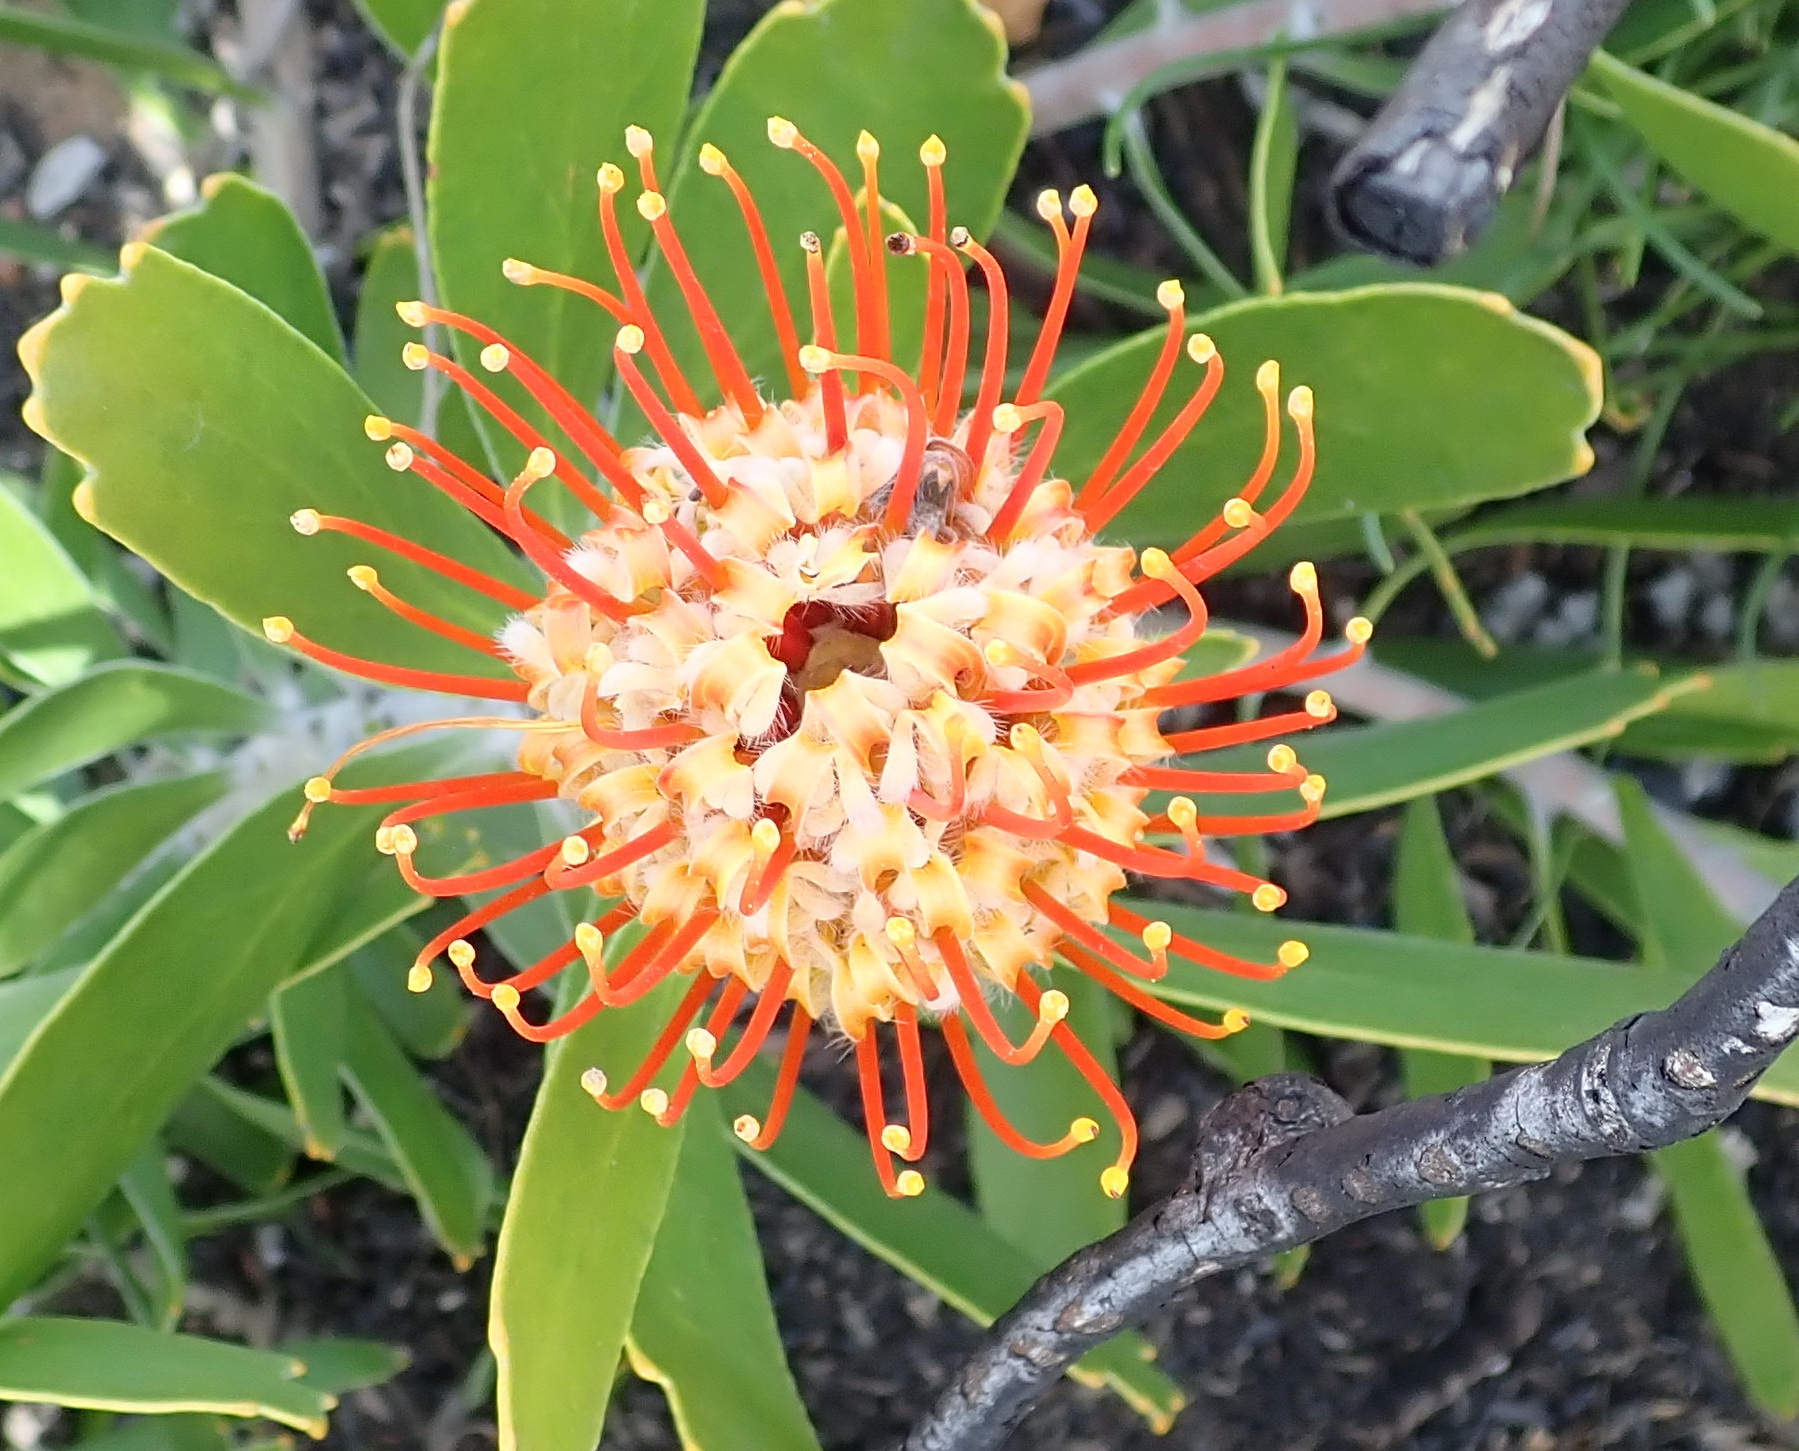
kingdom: Plantae
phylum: Tracheophyta
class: Magnoliopsida
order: Proteales
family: Proteaceae
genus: Leucospermum
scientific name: Leucospermum cuneiforme
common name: Common pincushion
